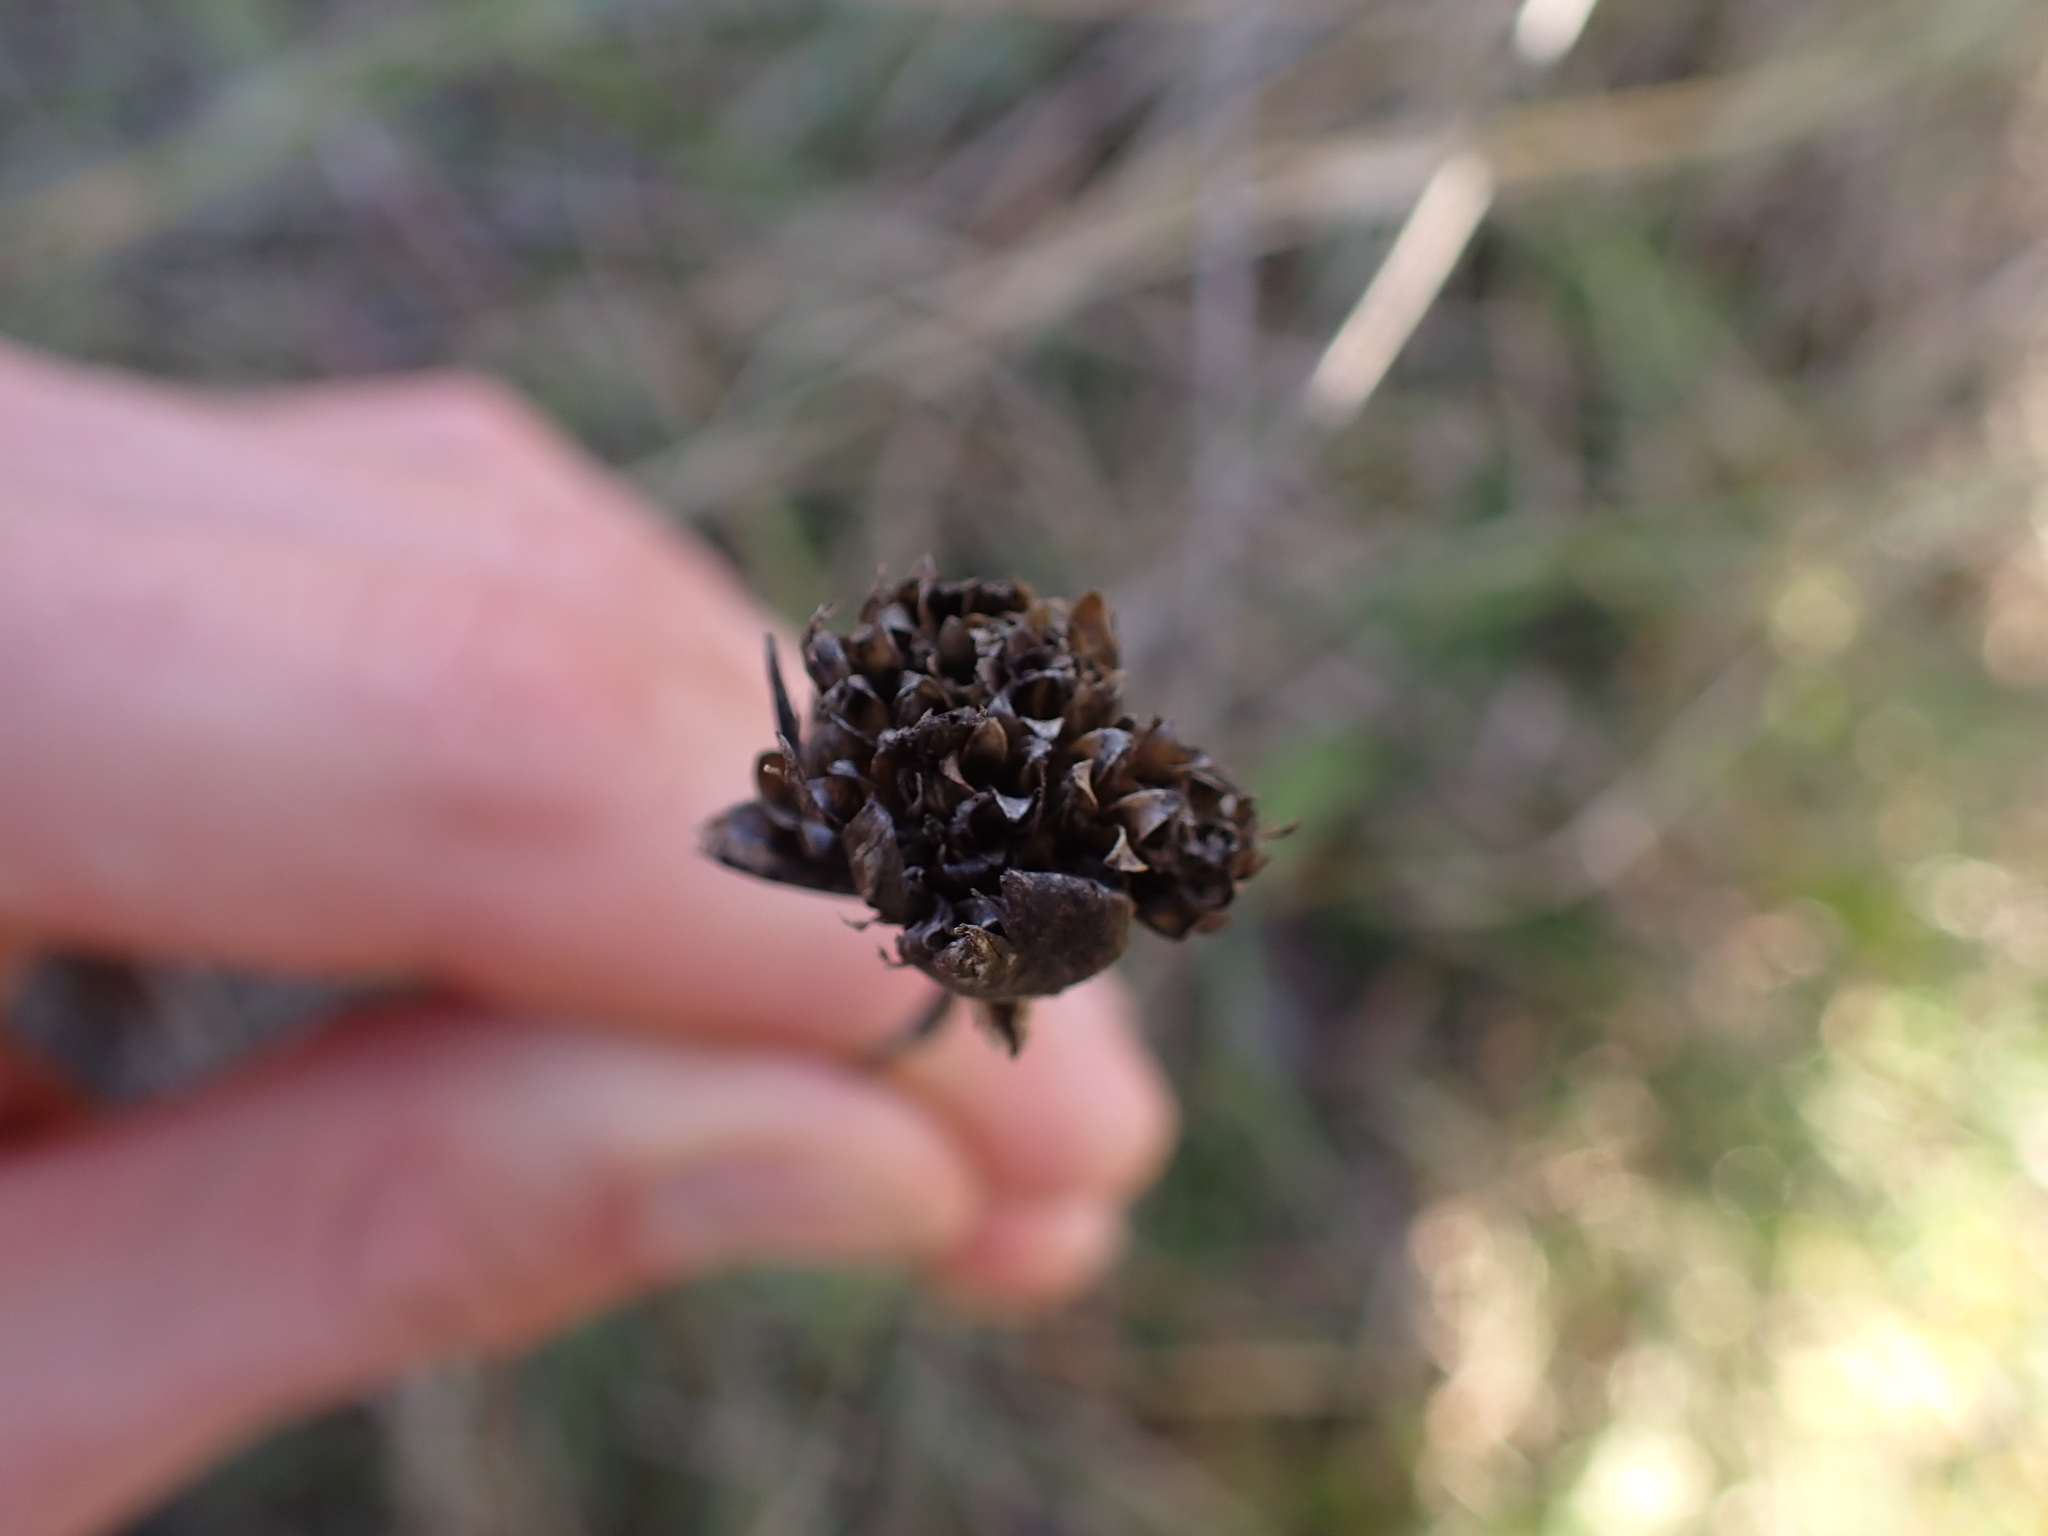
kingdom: Plantae
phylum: Tracheophyta
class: Magnoliopsida
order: Caryophyllales
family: Caryophyllaceae
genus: Petrorhagia
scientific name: Petrorhagia prolifera
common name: Proliferous pink
